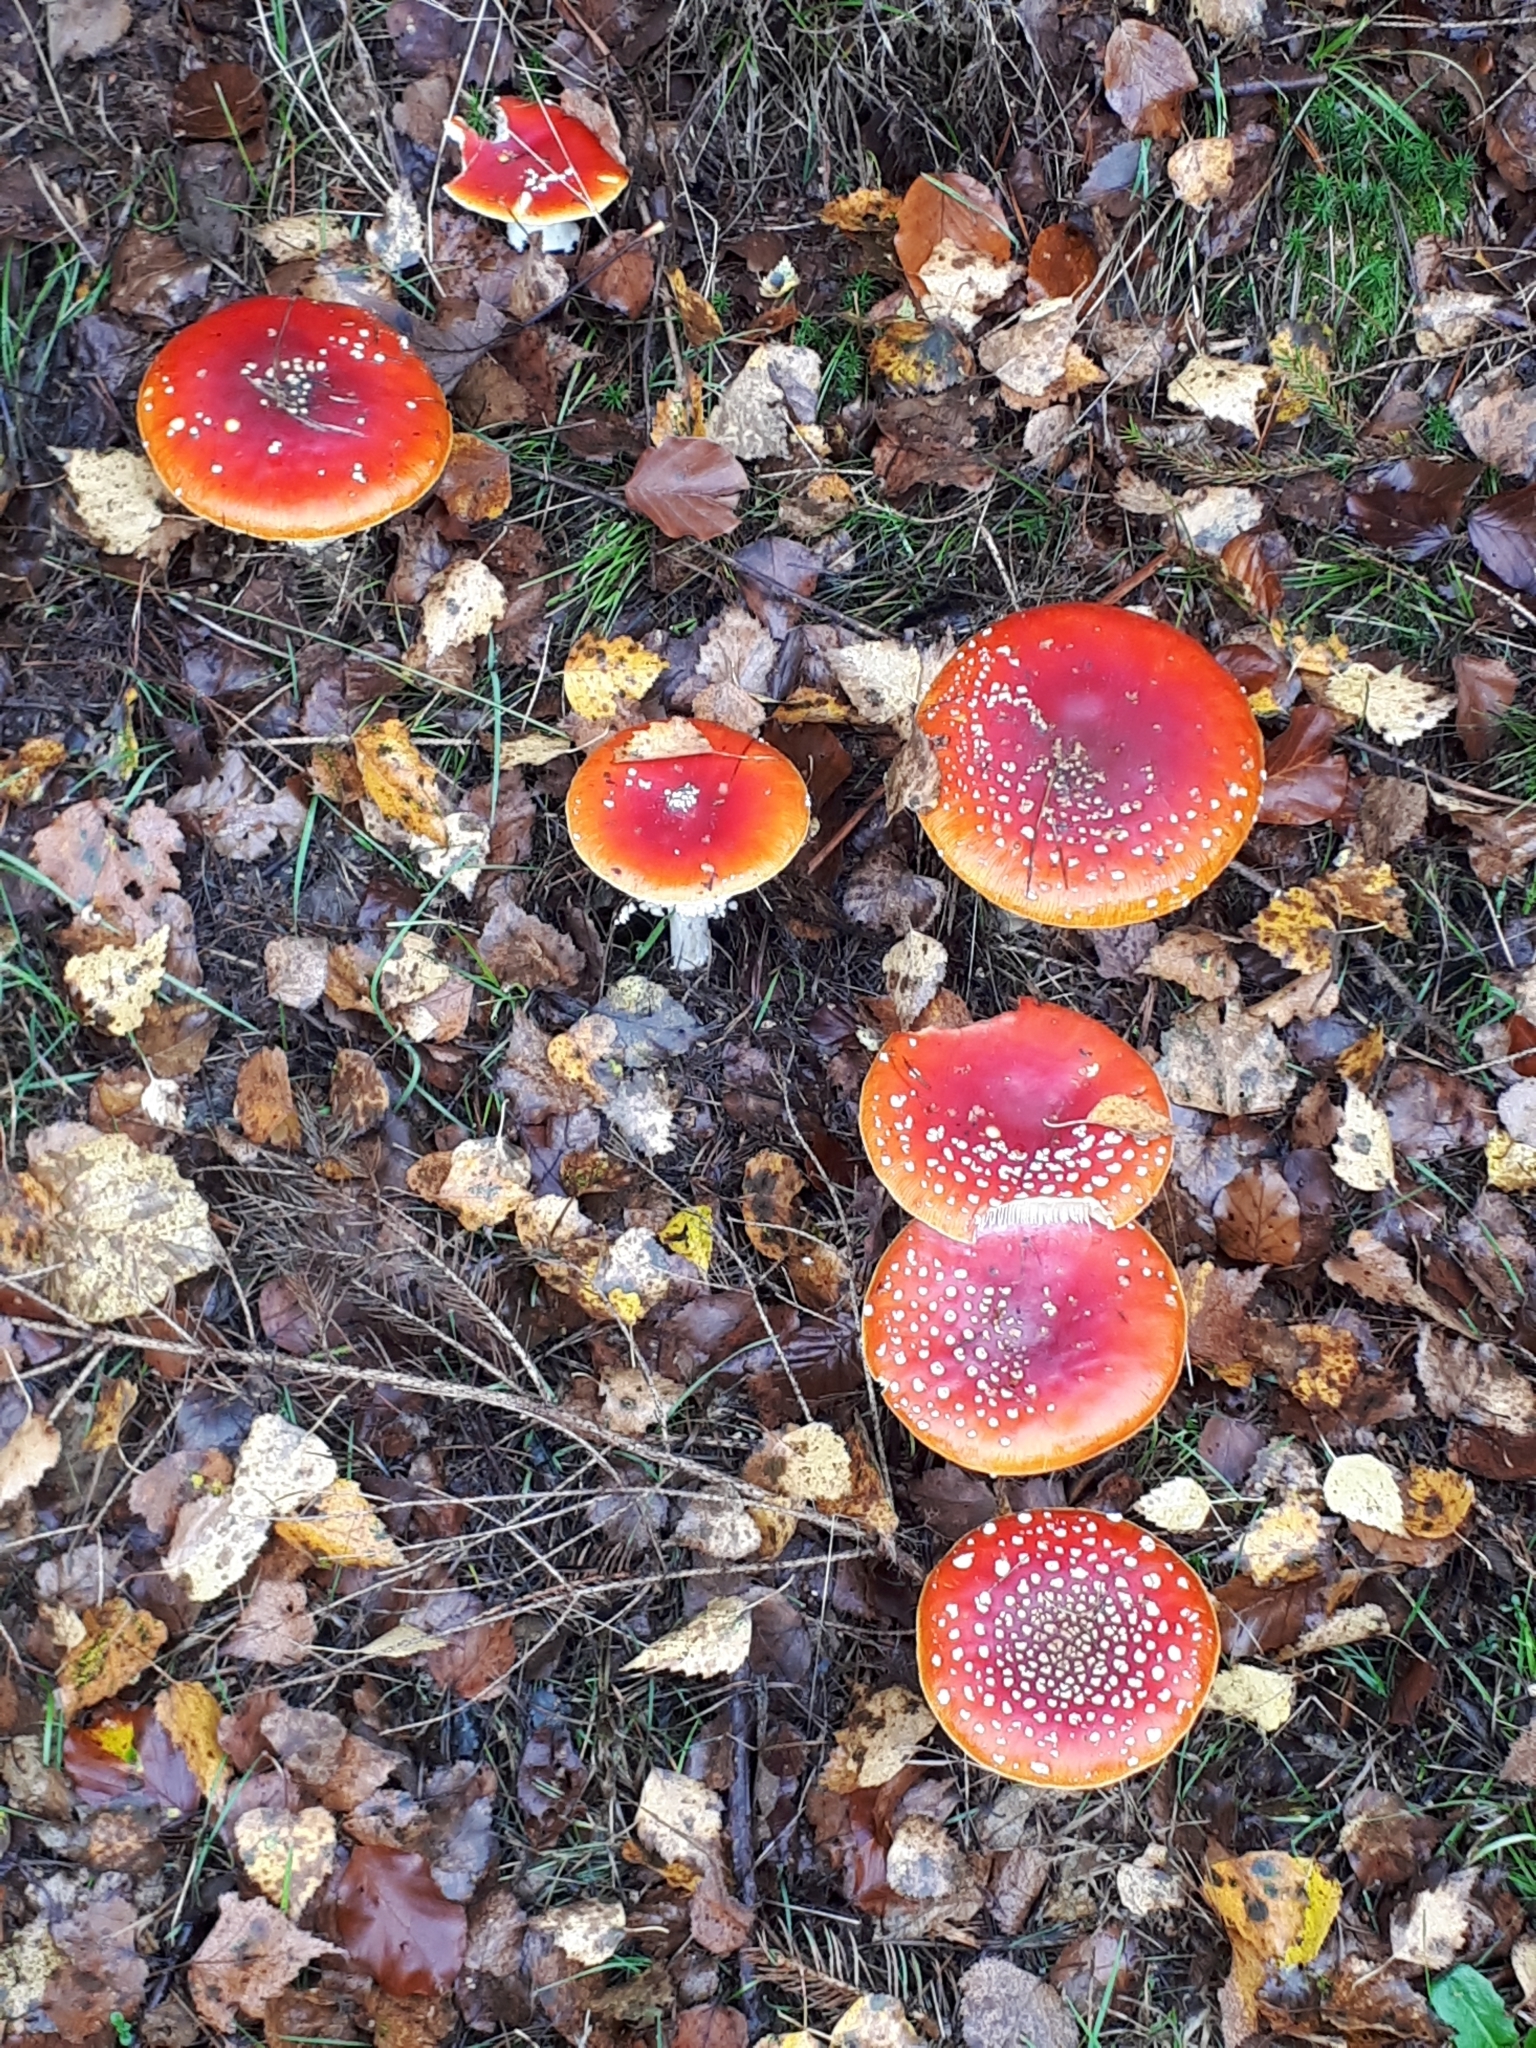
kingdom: Fungi
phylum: Basidiomycota
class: Agaricomycetes
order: Agaricales
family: Amanitaceae
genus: Amanita
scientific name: Amanita muscaria
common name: Fly agaric
